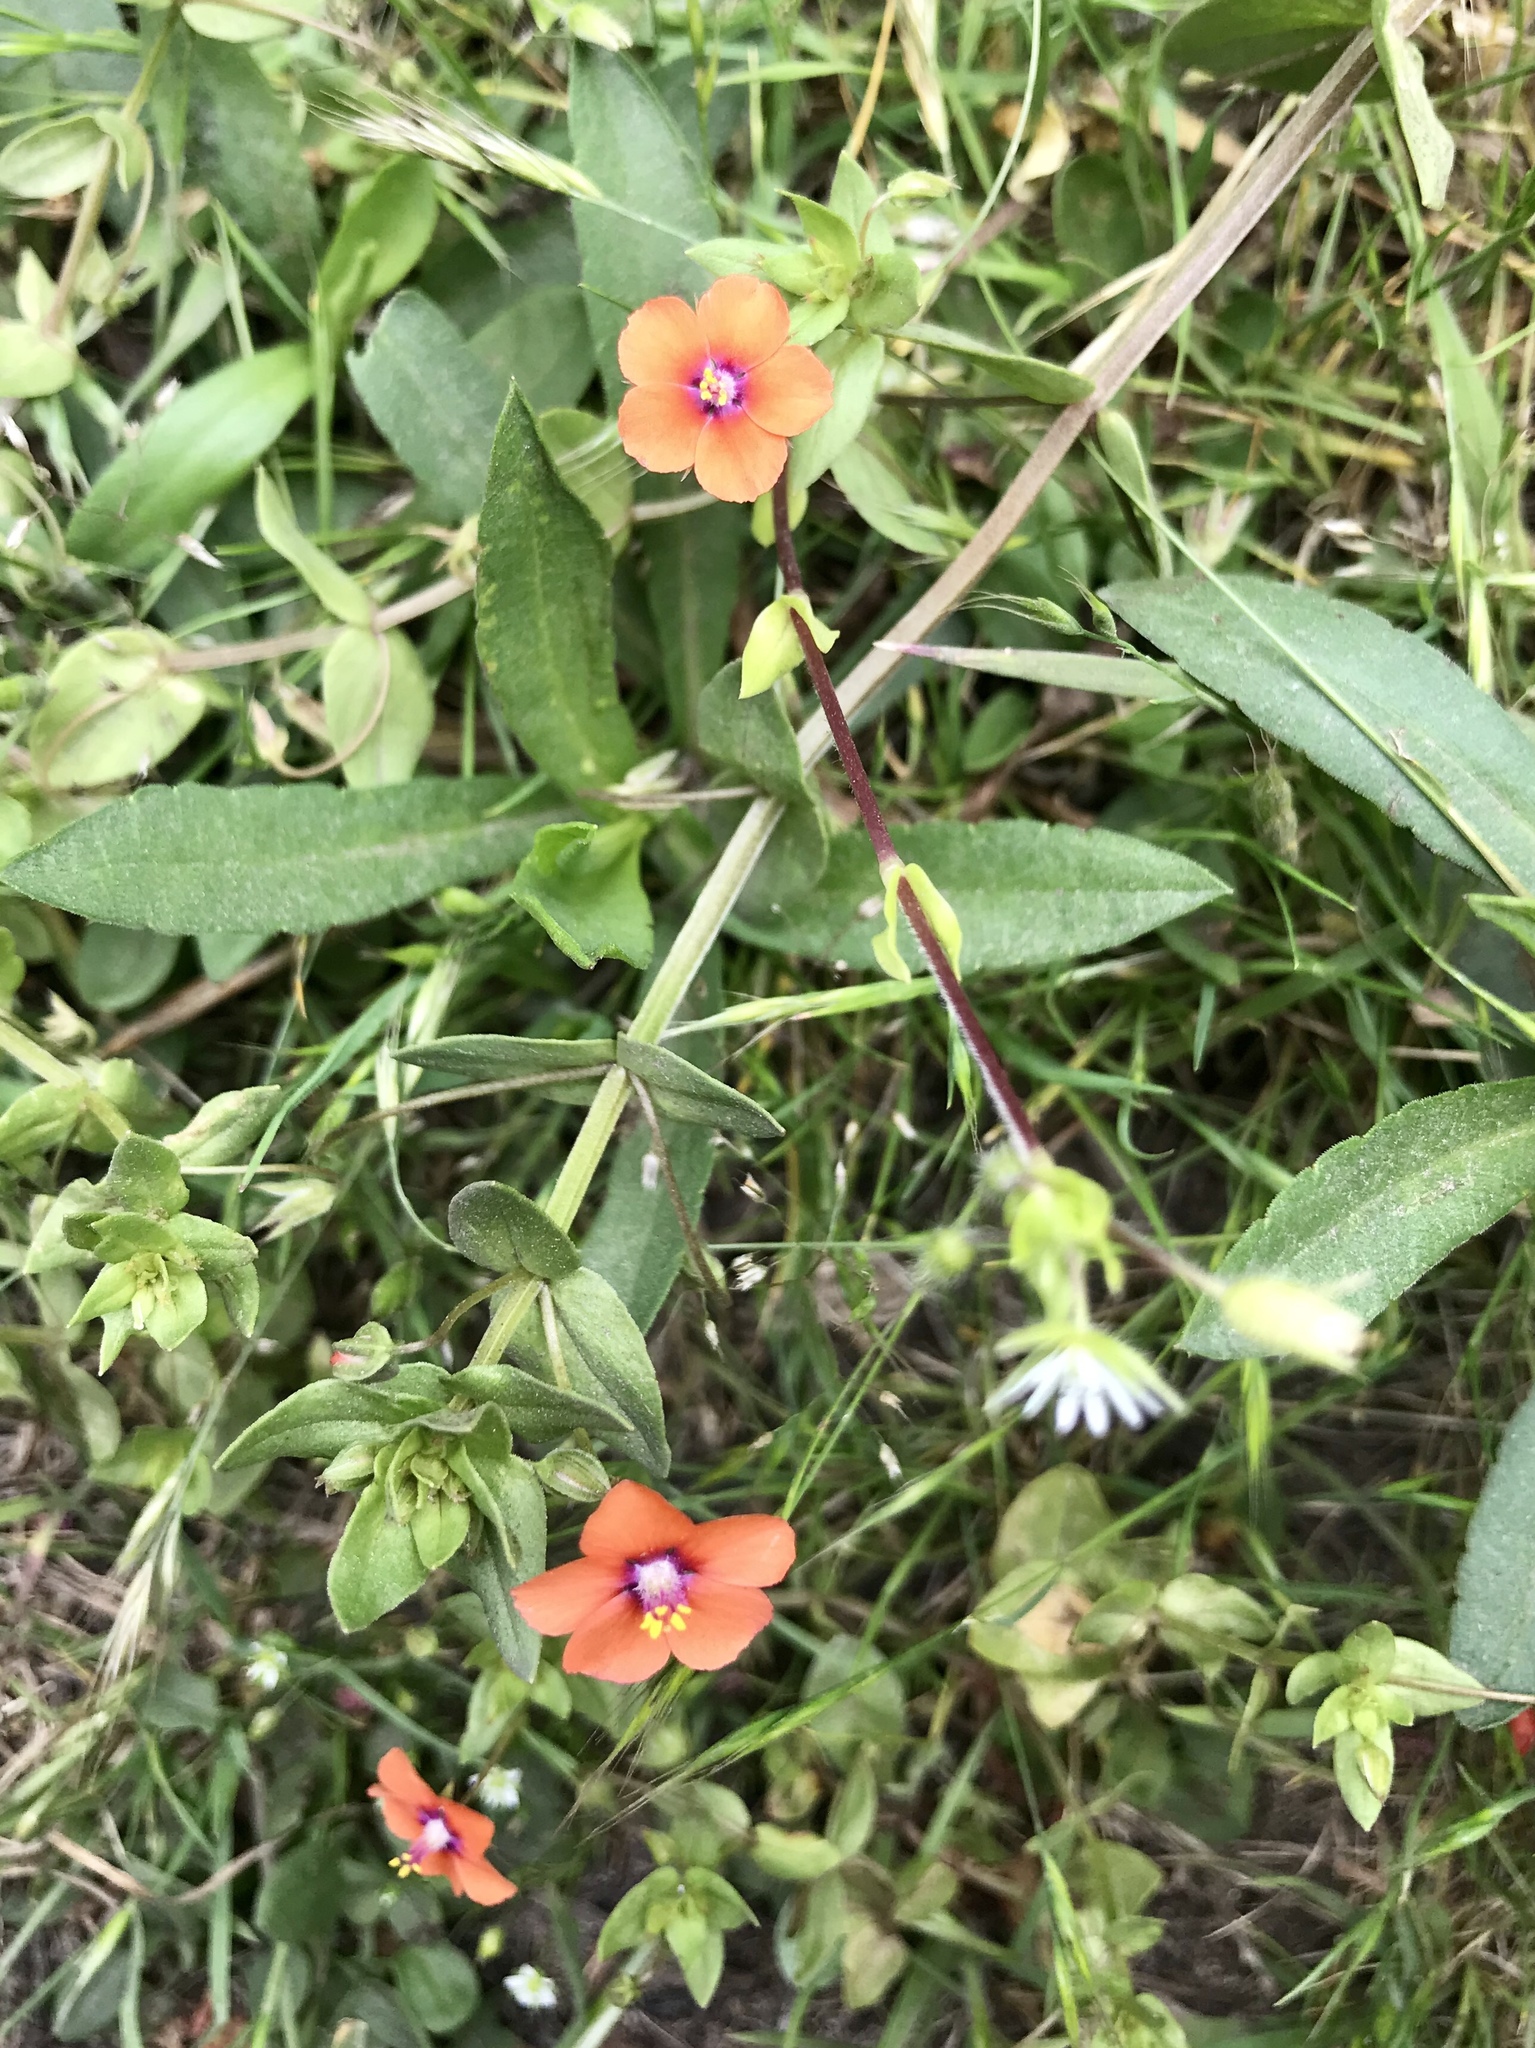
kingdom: Plantae
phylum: Tracheophyta
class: Magnoliopsida
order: Ericales
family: Primulaceae
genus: Lysimachia
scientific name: Lysimachia arvensis
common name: Scarlet pimpernel
